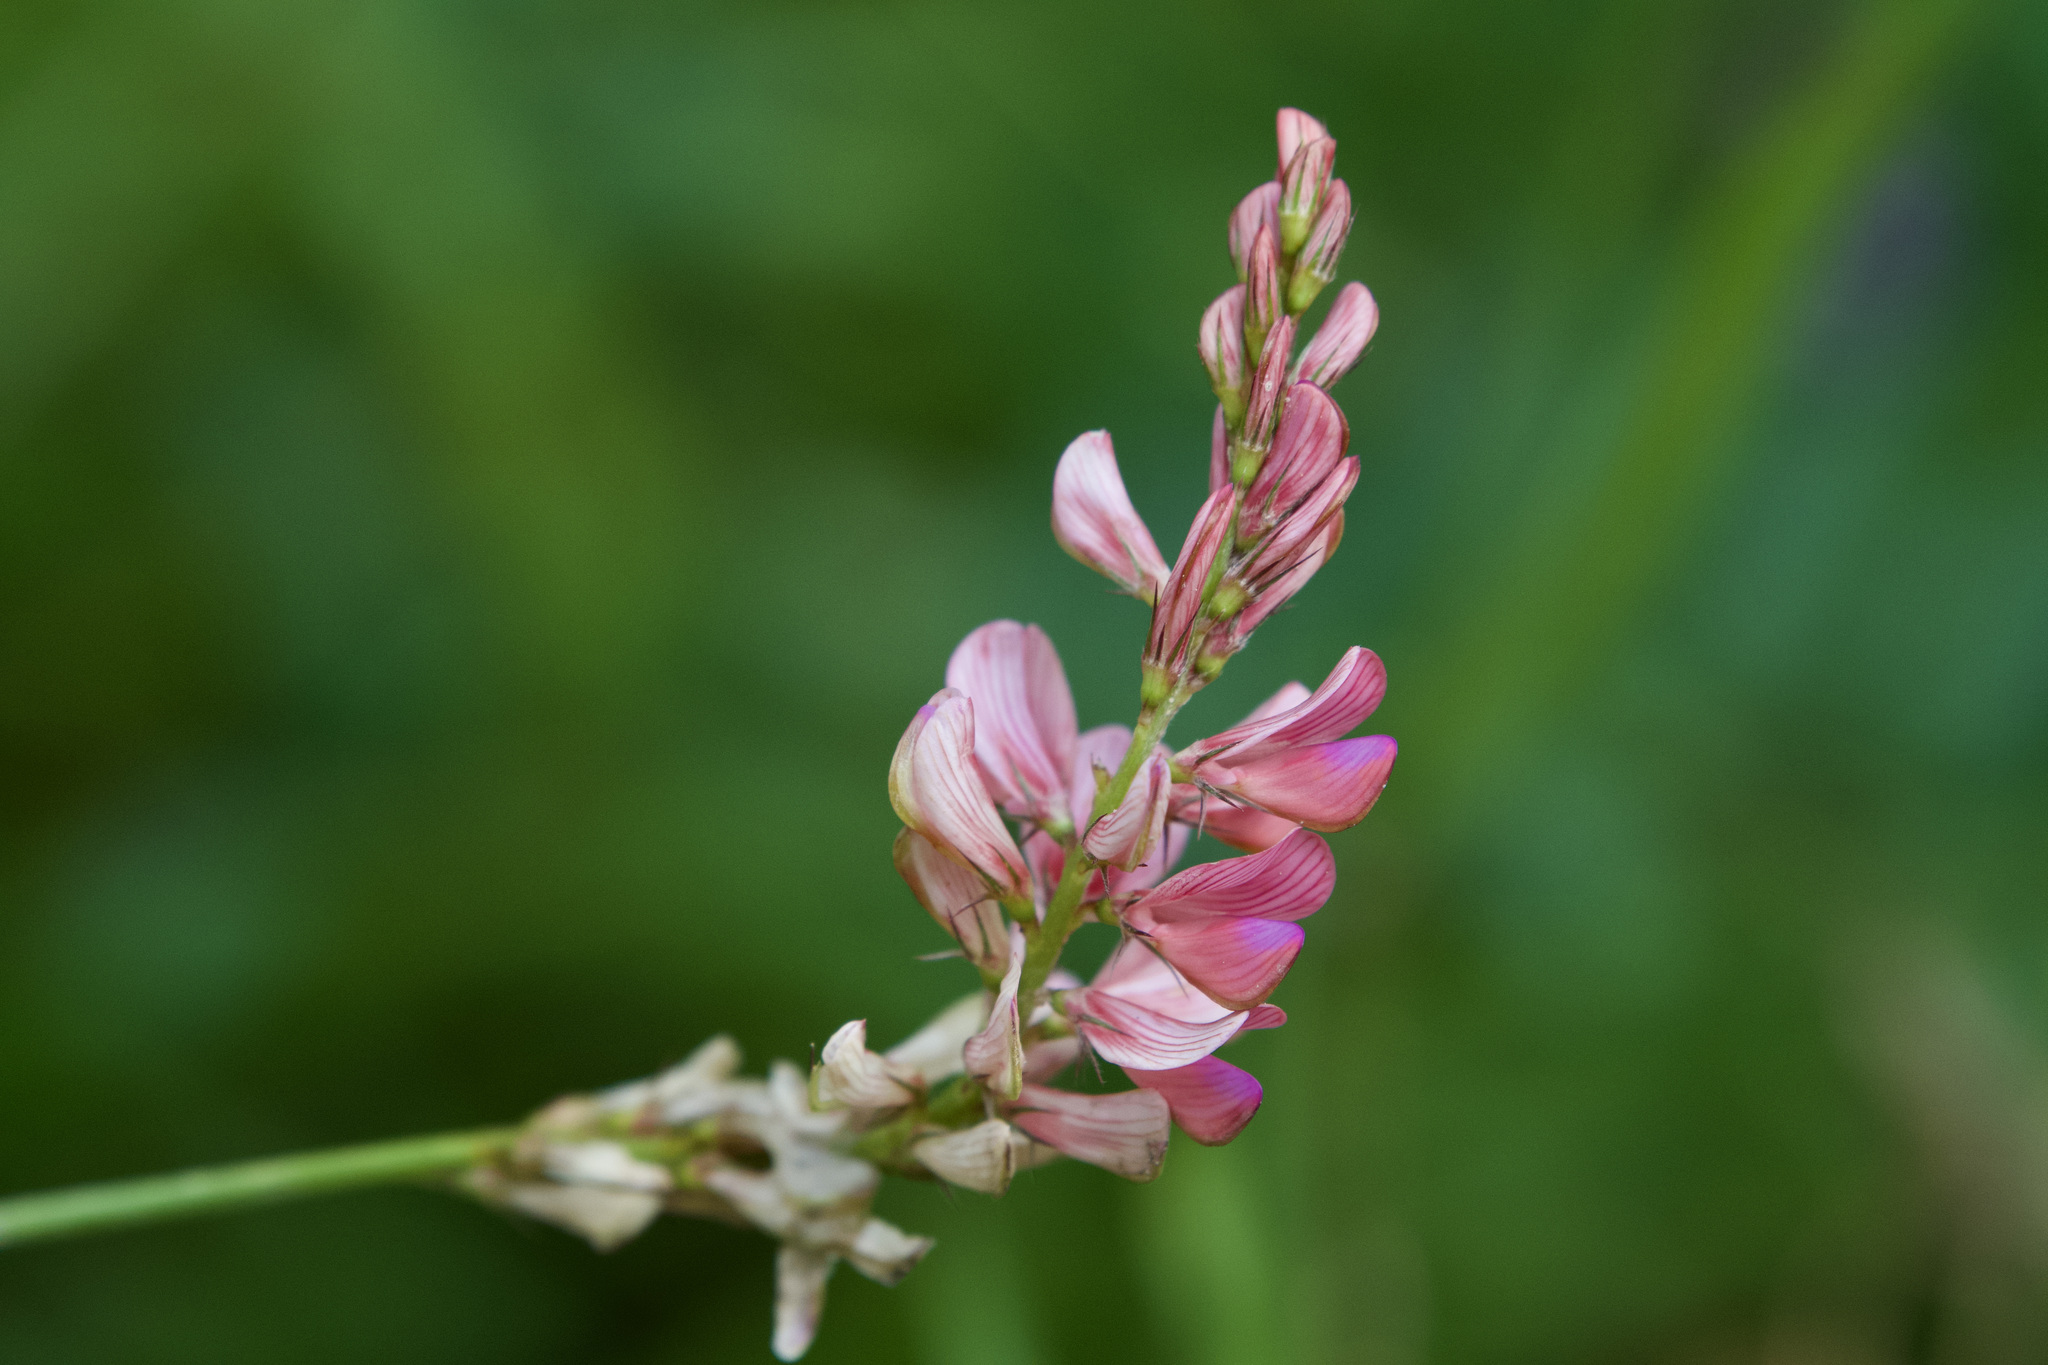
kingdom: Plantae
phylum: Tracheophyta
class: Magnoliopsida
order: Fabales
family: Fabaceae
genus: Onobrychis
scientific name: Onobrychis viciifolia
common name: Sainfoin
